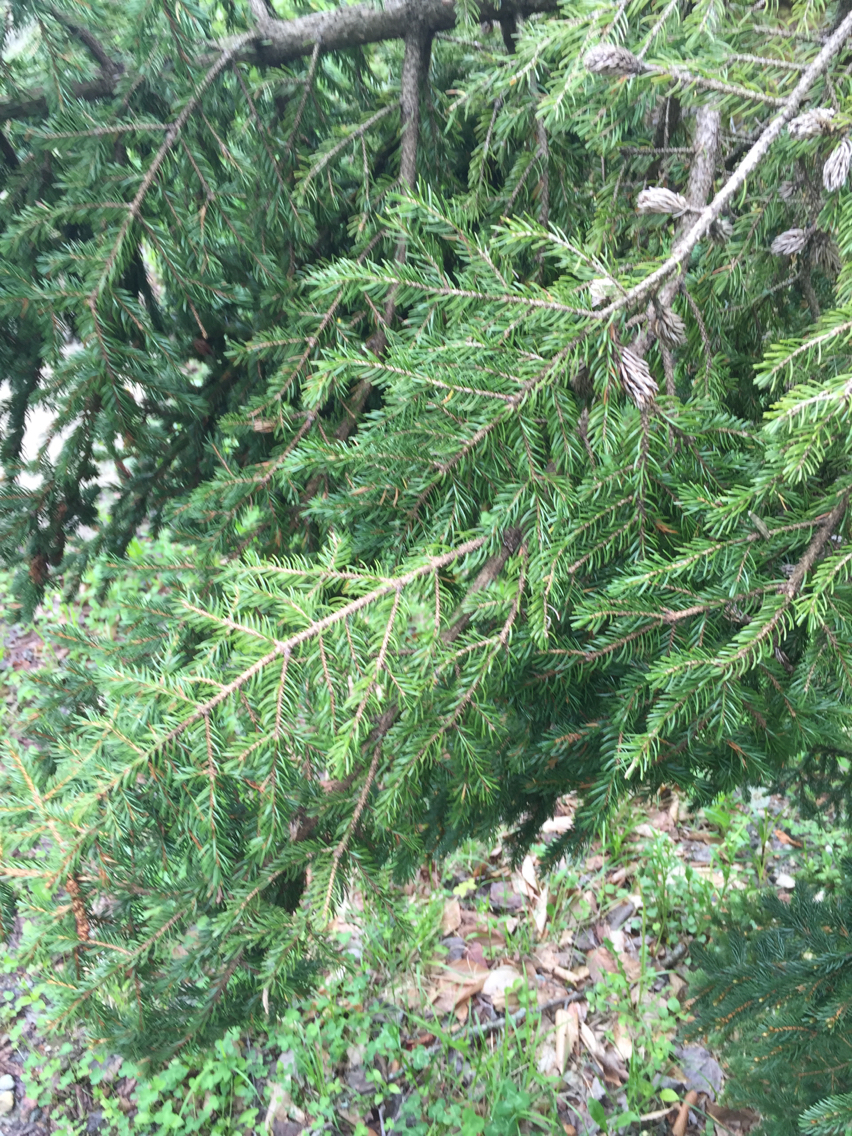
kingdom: Plantae
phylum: Tracheophyta
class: Pinopsida
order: Pinales
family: Pinaceae
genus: Picea
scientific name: Picea rubens
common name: Red spruce
